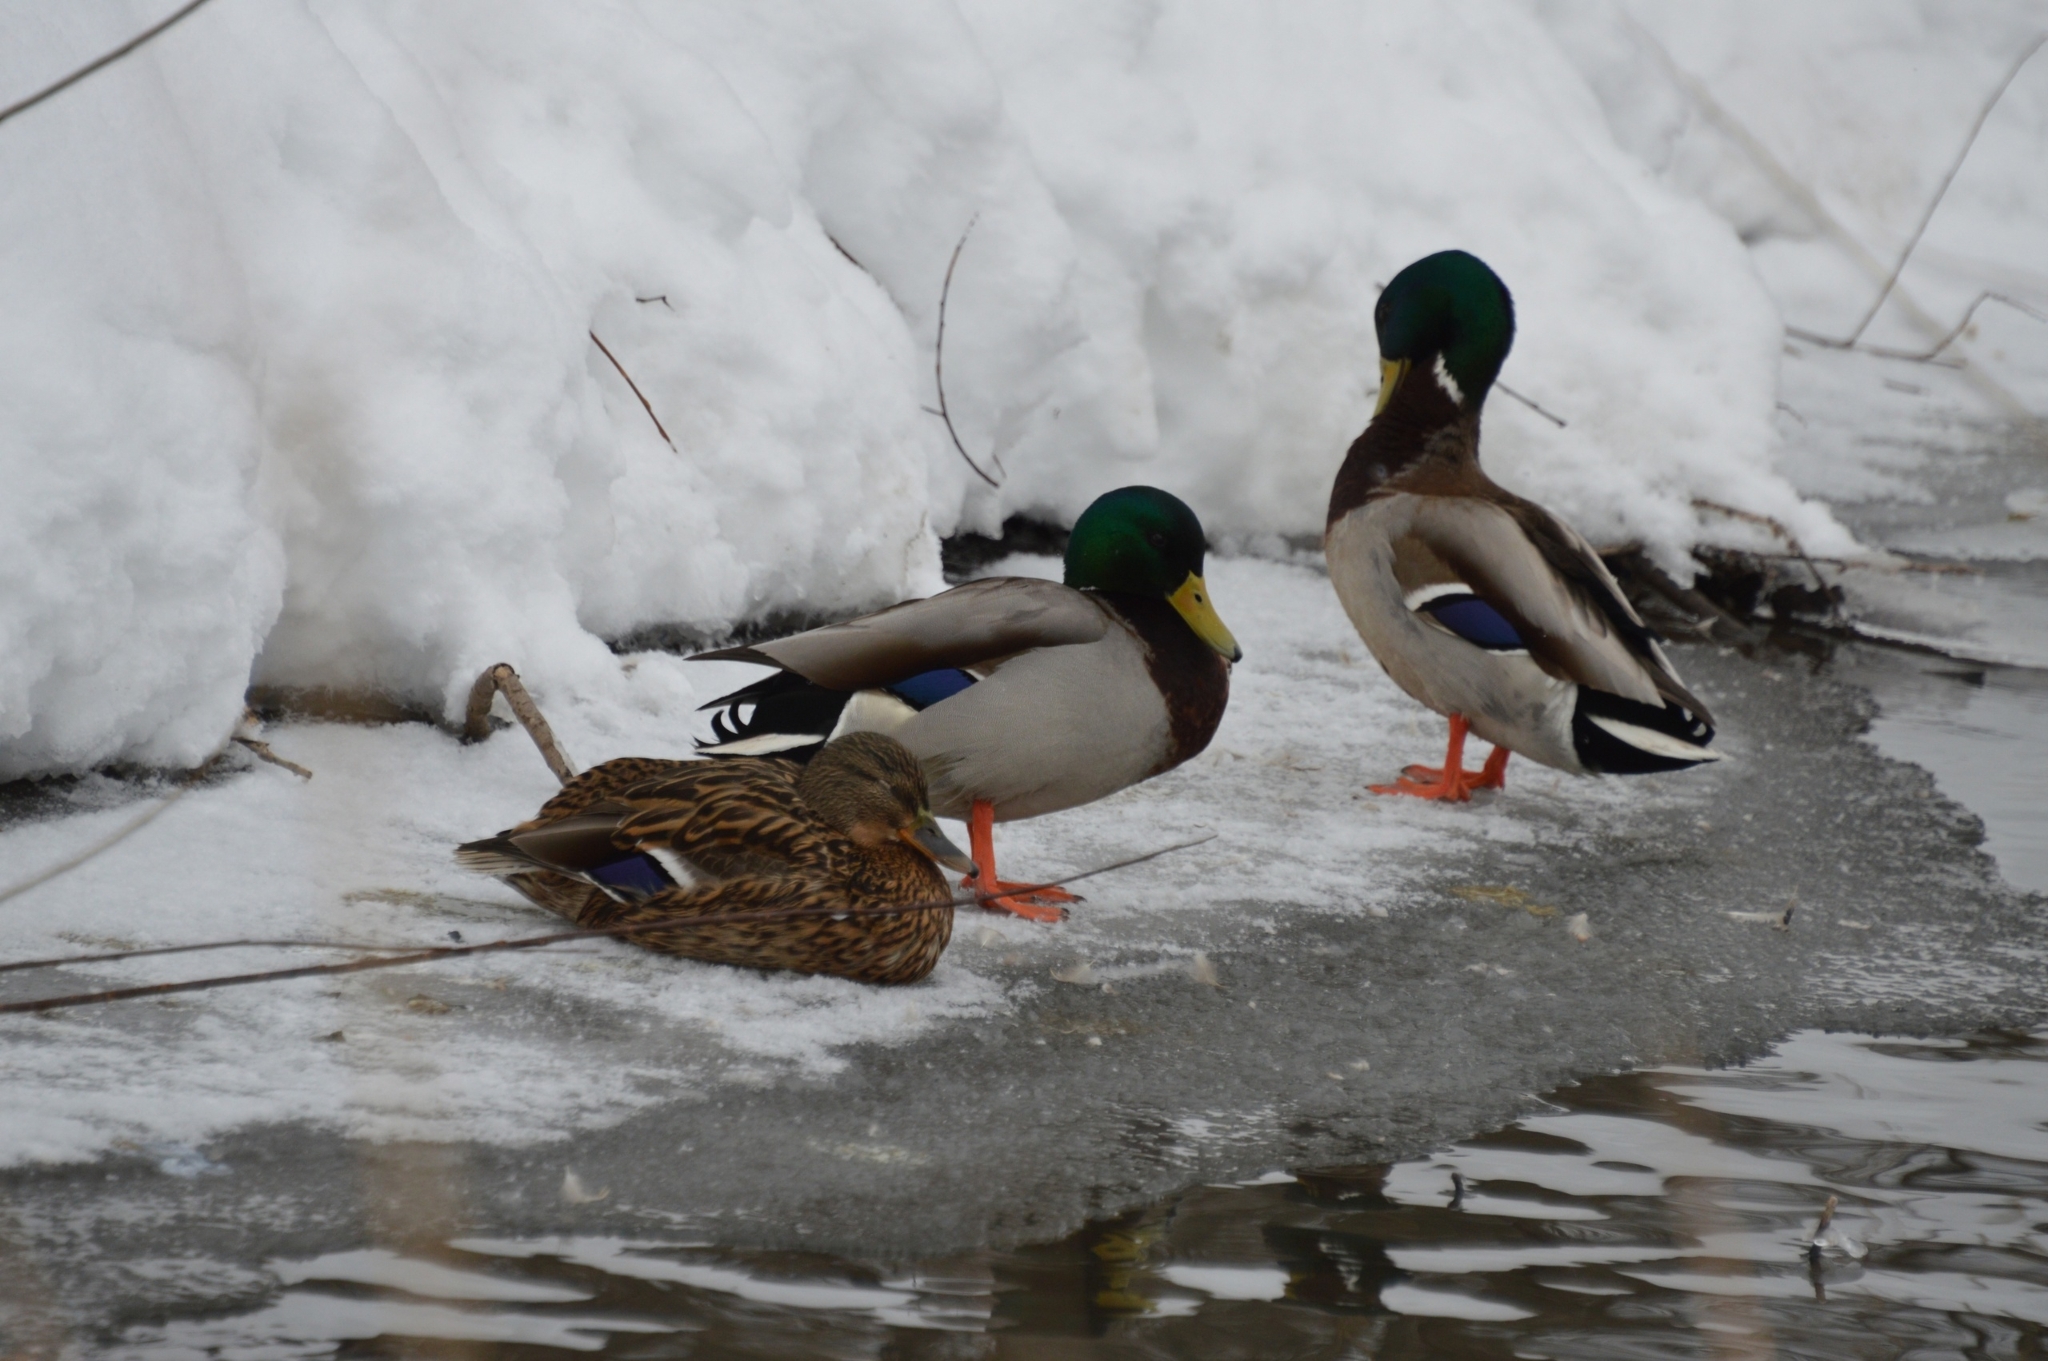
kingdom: Animalia
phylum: Chordata
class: Aves
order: Anseriformes
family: Anatidae
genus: Anas
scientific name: Anas platyrhynchos
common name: Mallard
